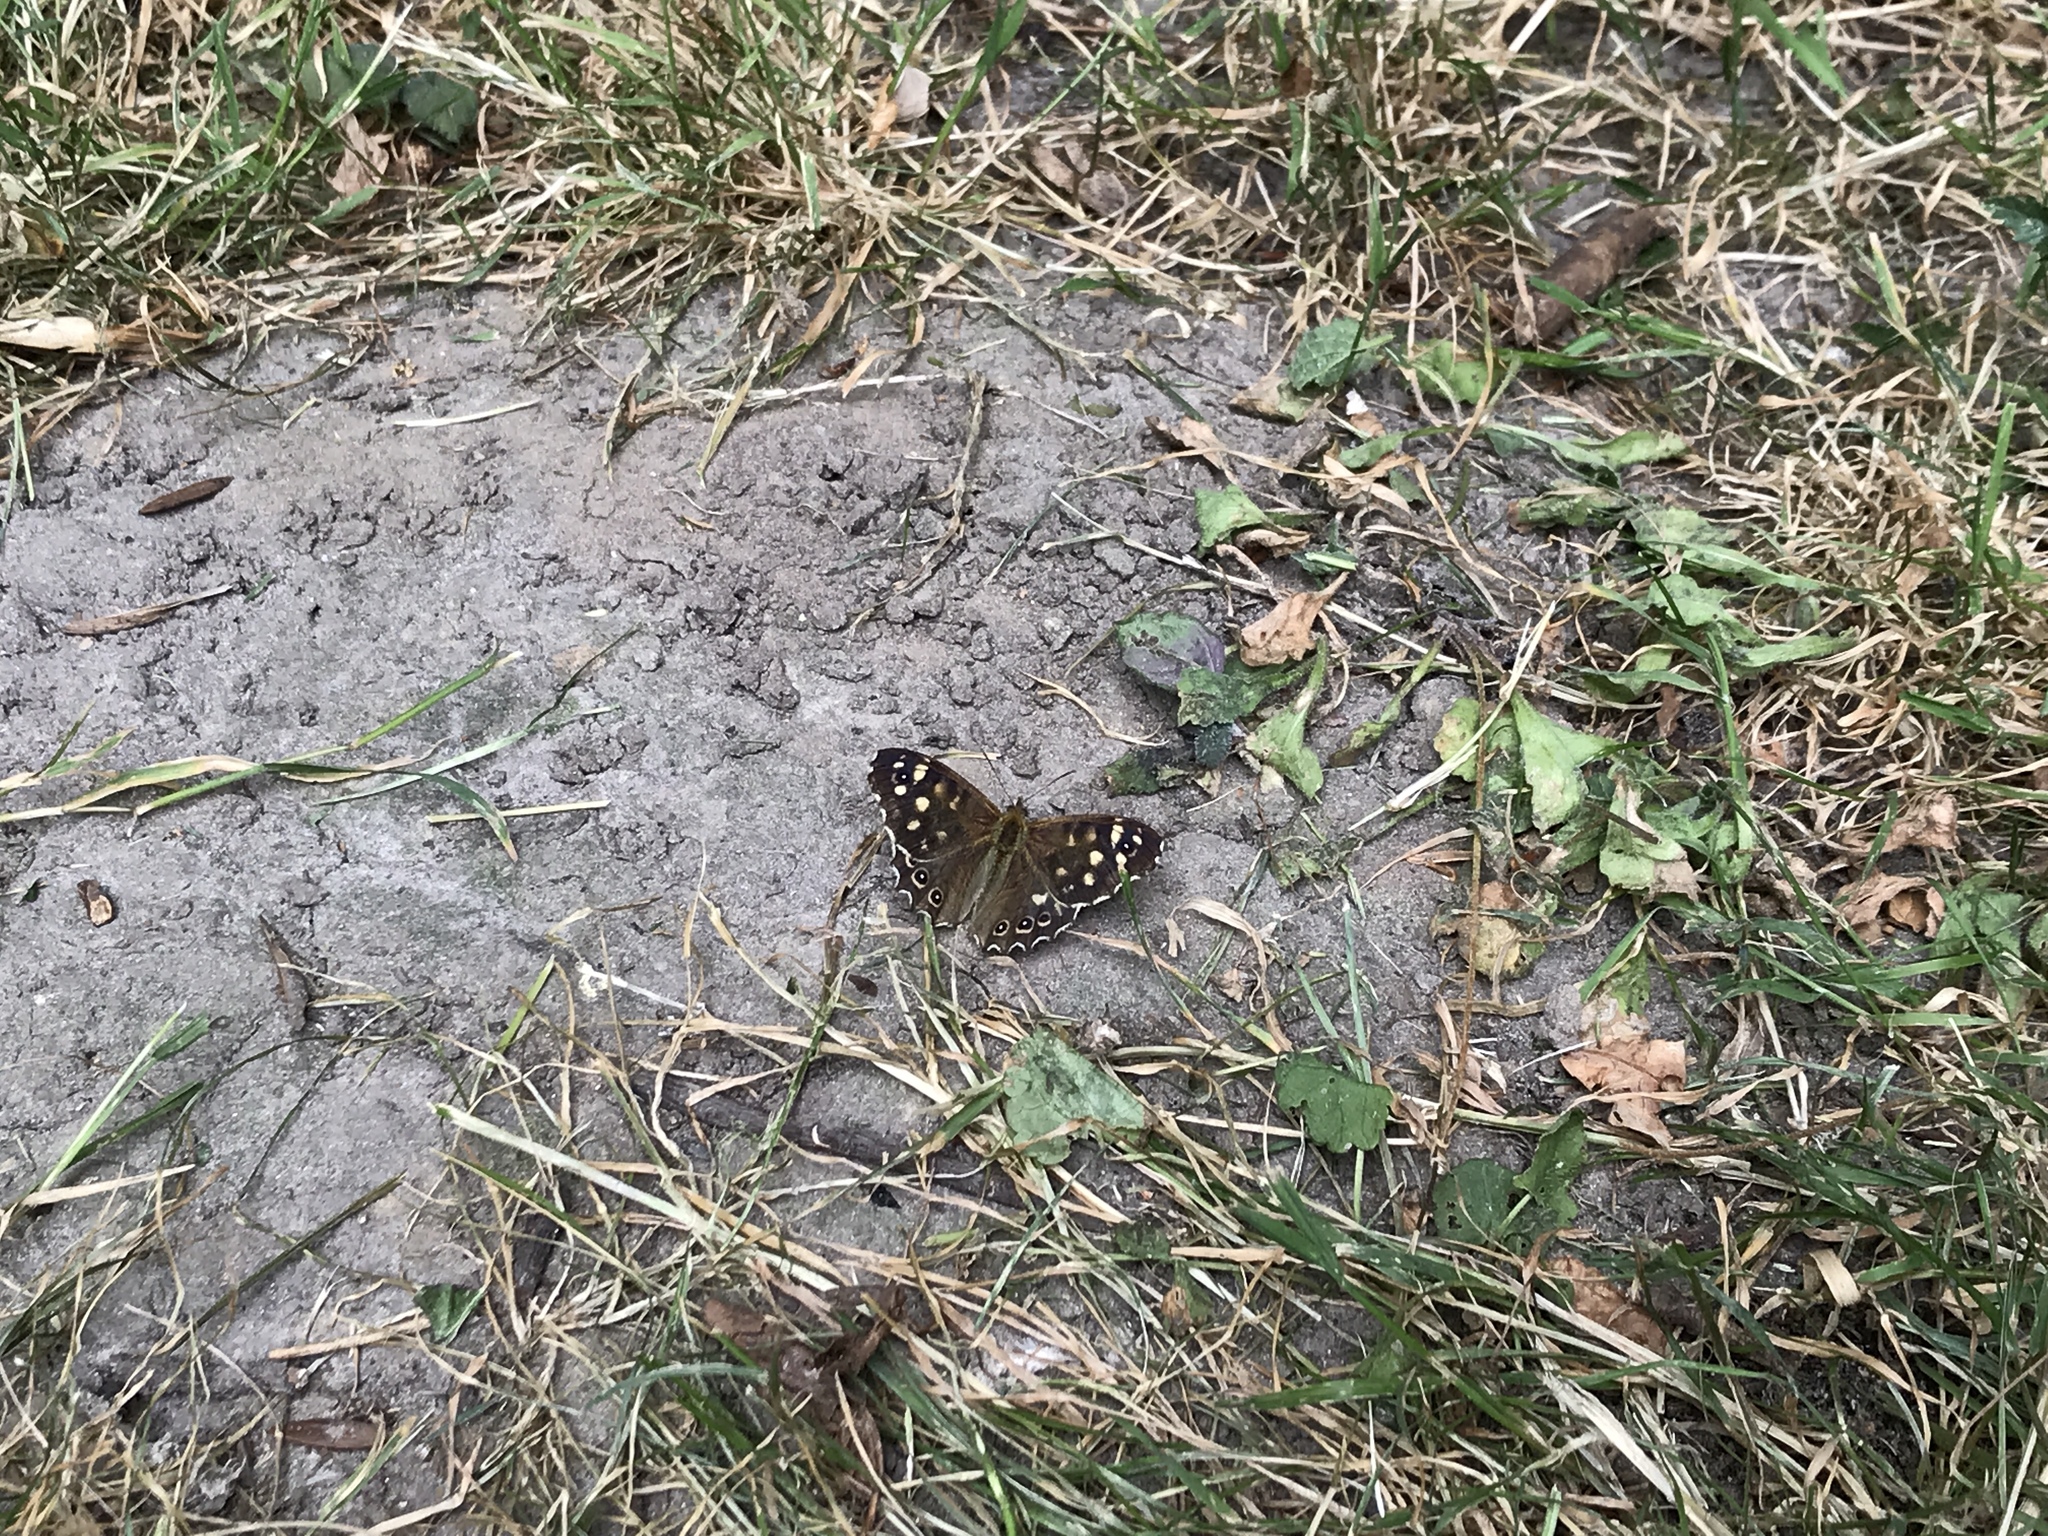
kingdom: Animalia
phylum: Arthropoda
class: Insecta
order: Lepidoptera
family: Nymphalidae
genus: Pararge
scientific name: Pararge aegeria
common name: Speckled wood
